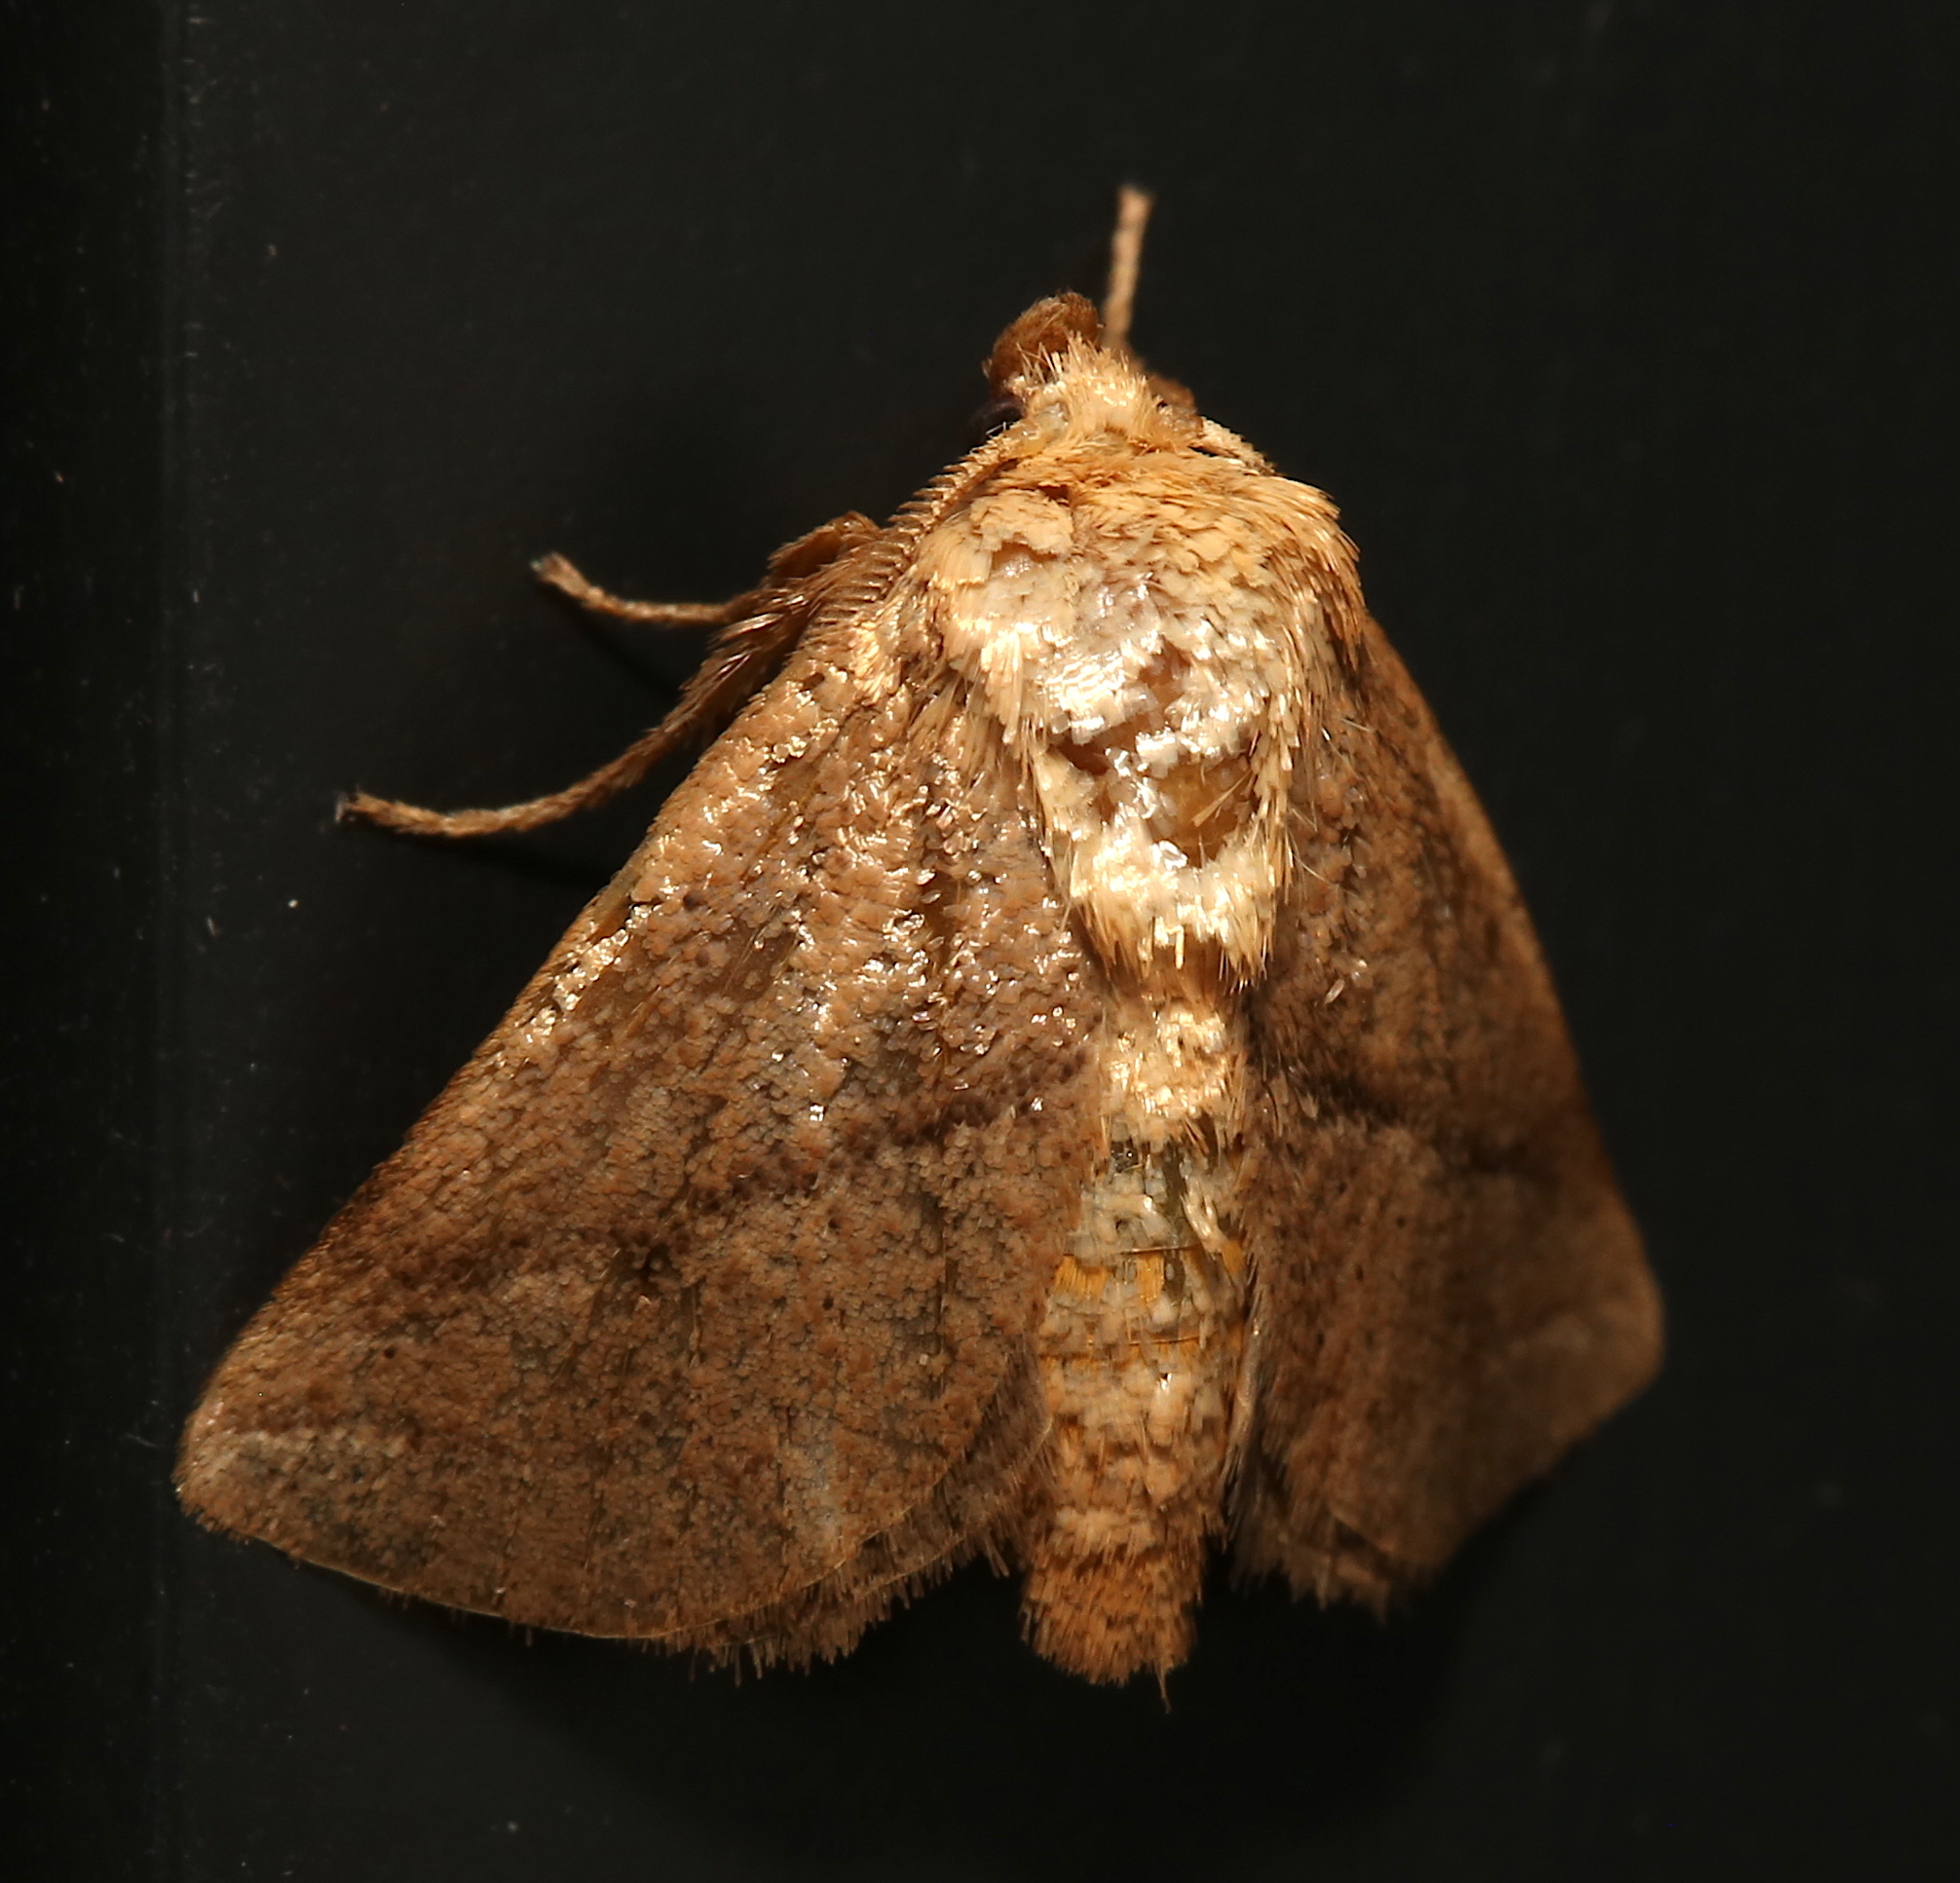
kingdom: Animalia
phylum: Arthropoda
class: Insecta
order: Lepidoptera
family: Limacodidae
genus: Natada
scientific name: Natada nasoni
